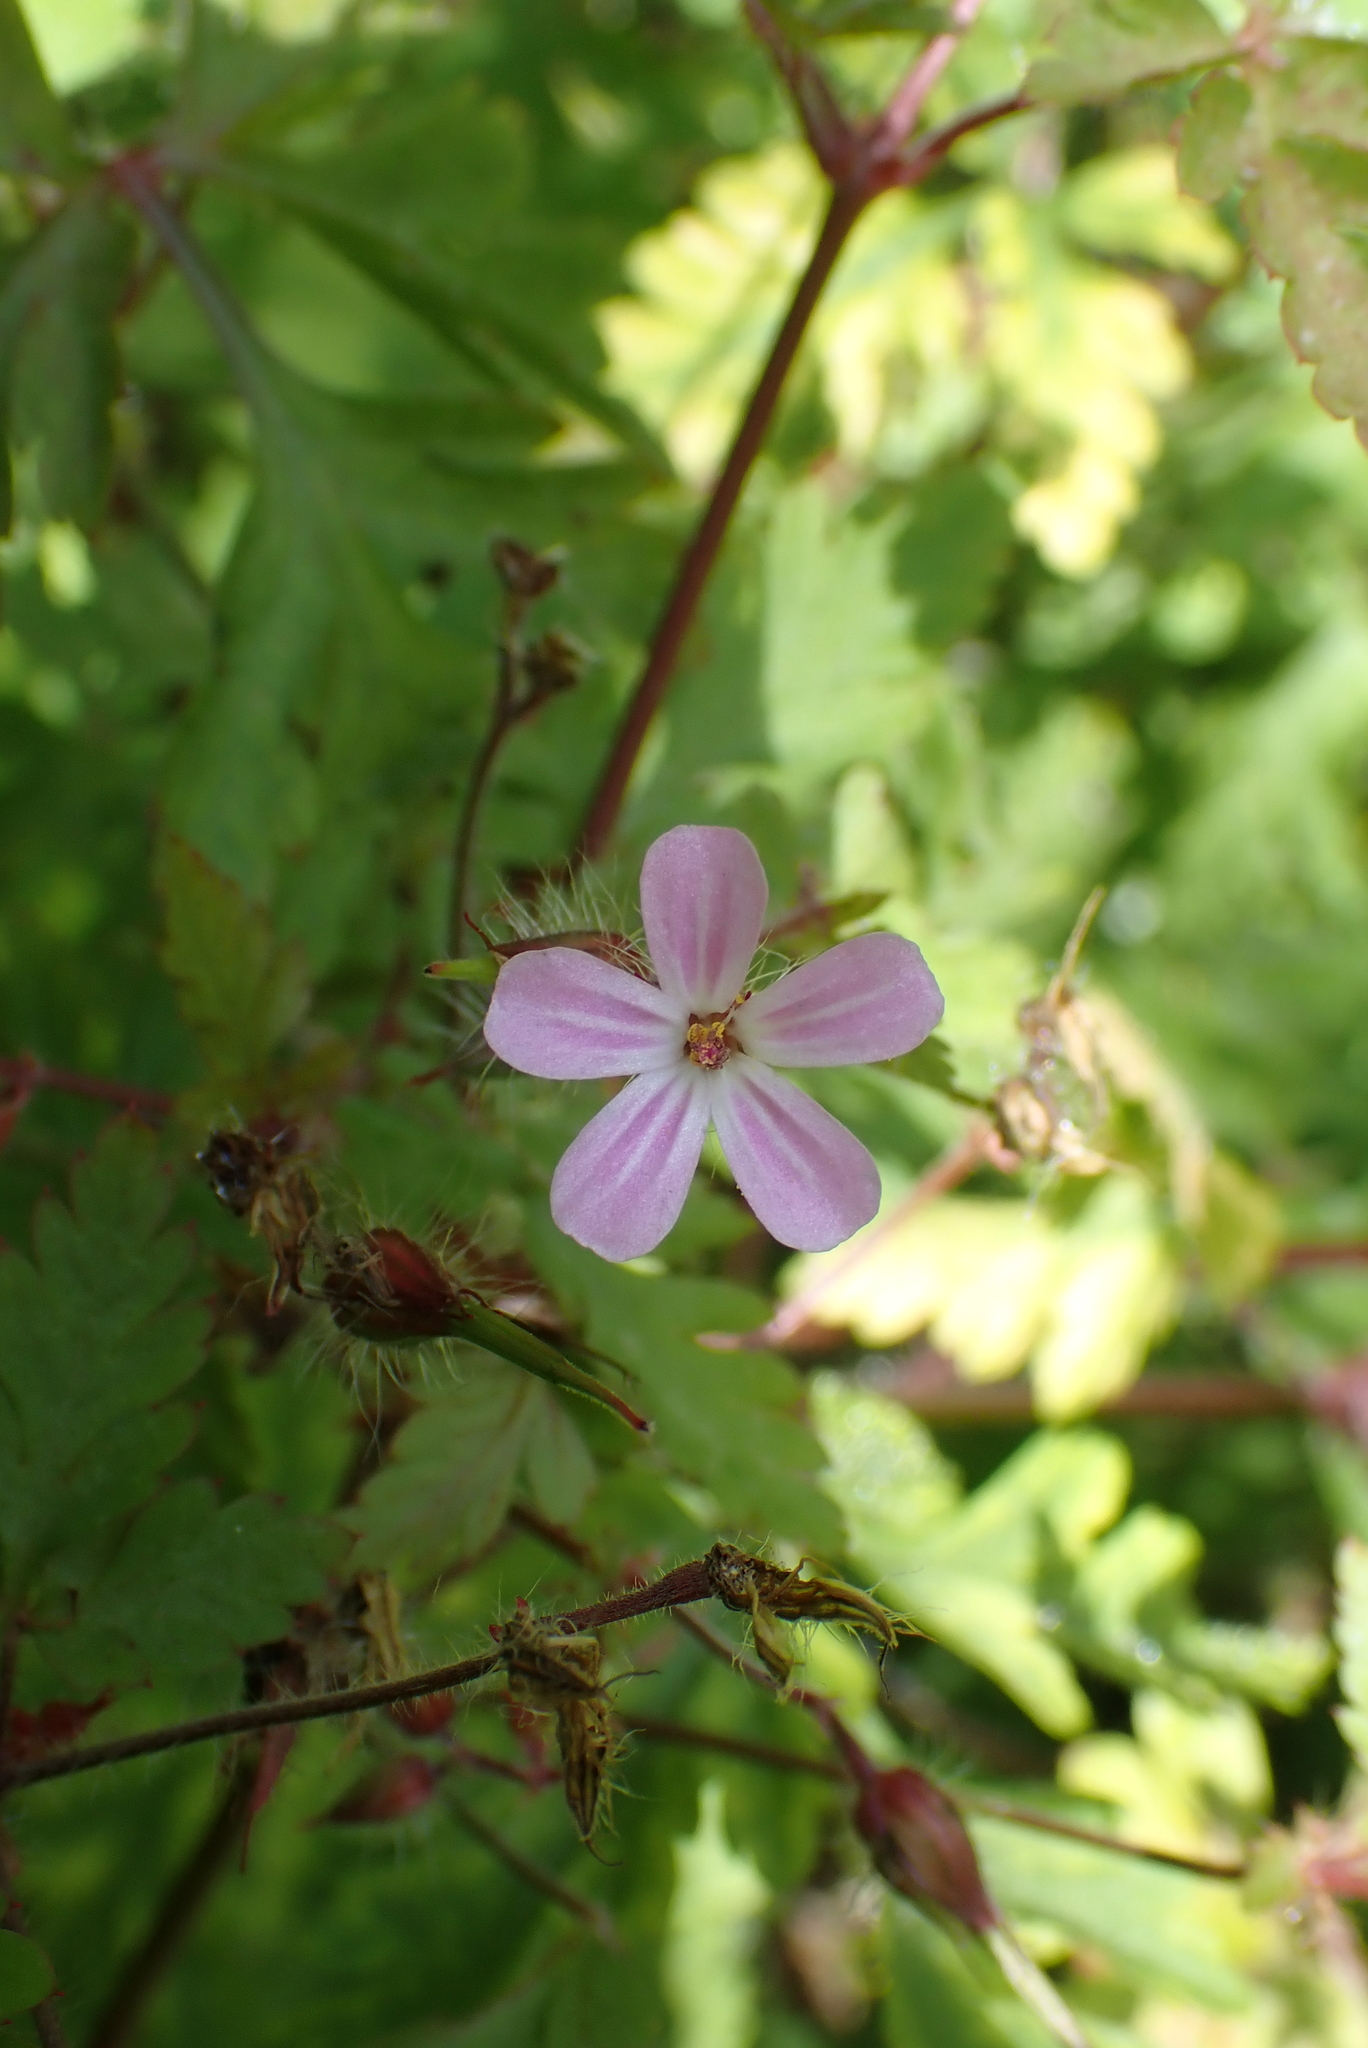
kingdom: Plantae
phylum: Tracheophyta
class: Magnoliopsida
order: Geraniales
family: Geraniaceae
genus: Geranium
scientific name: Geranium robertianum
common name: Herb-robert
